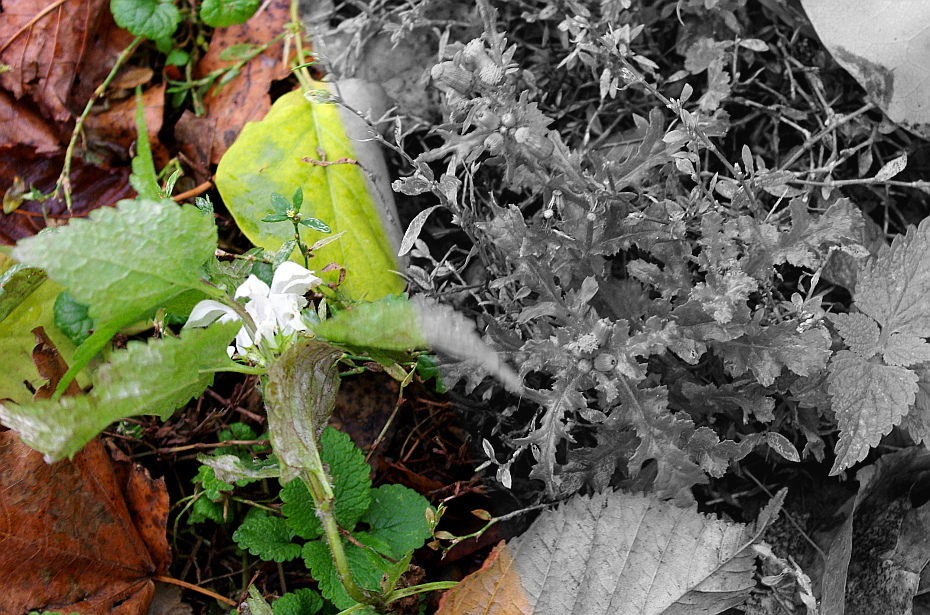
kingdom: Plantae
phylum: Tracheophyta
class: Magnoliopsida
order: Lamiales
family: Lamiaceae
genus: Lamium
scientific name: Lamium album
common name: White dead-nettle
